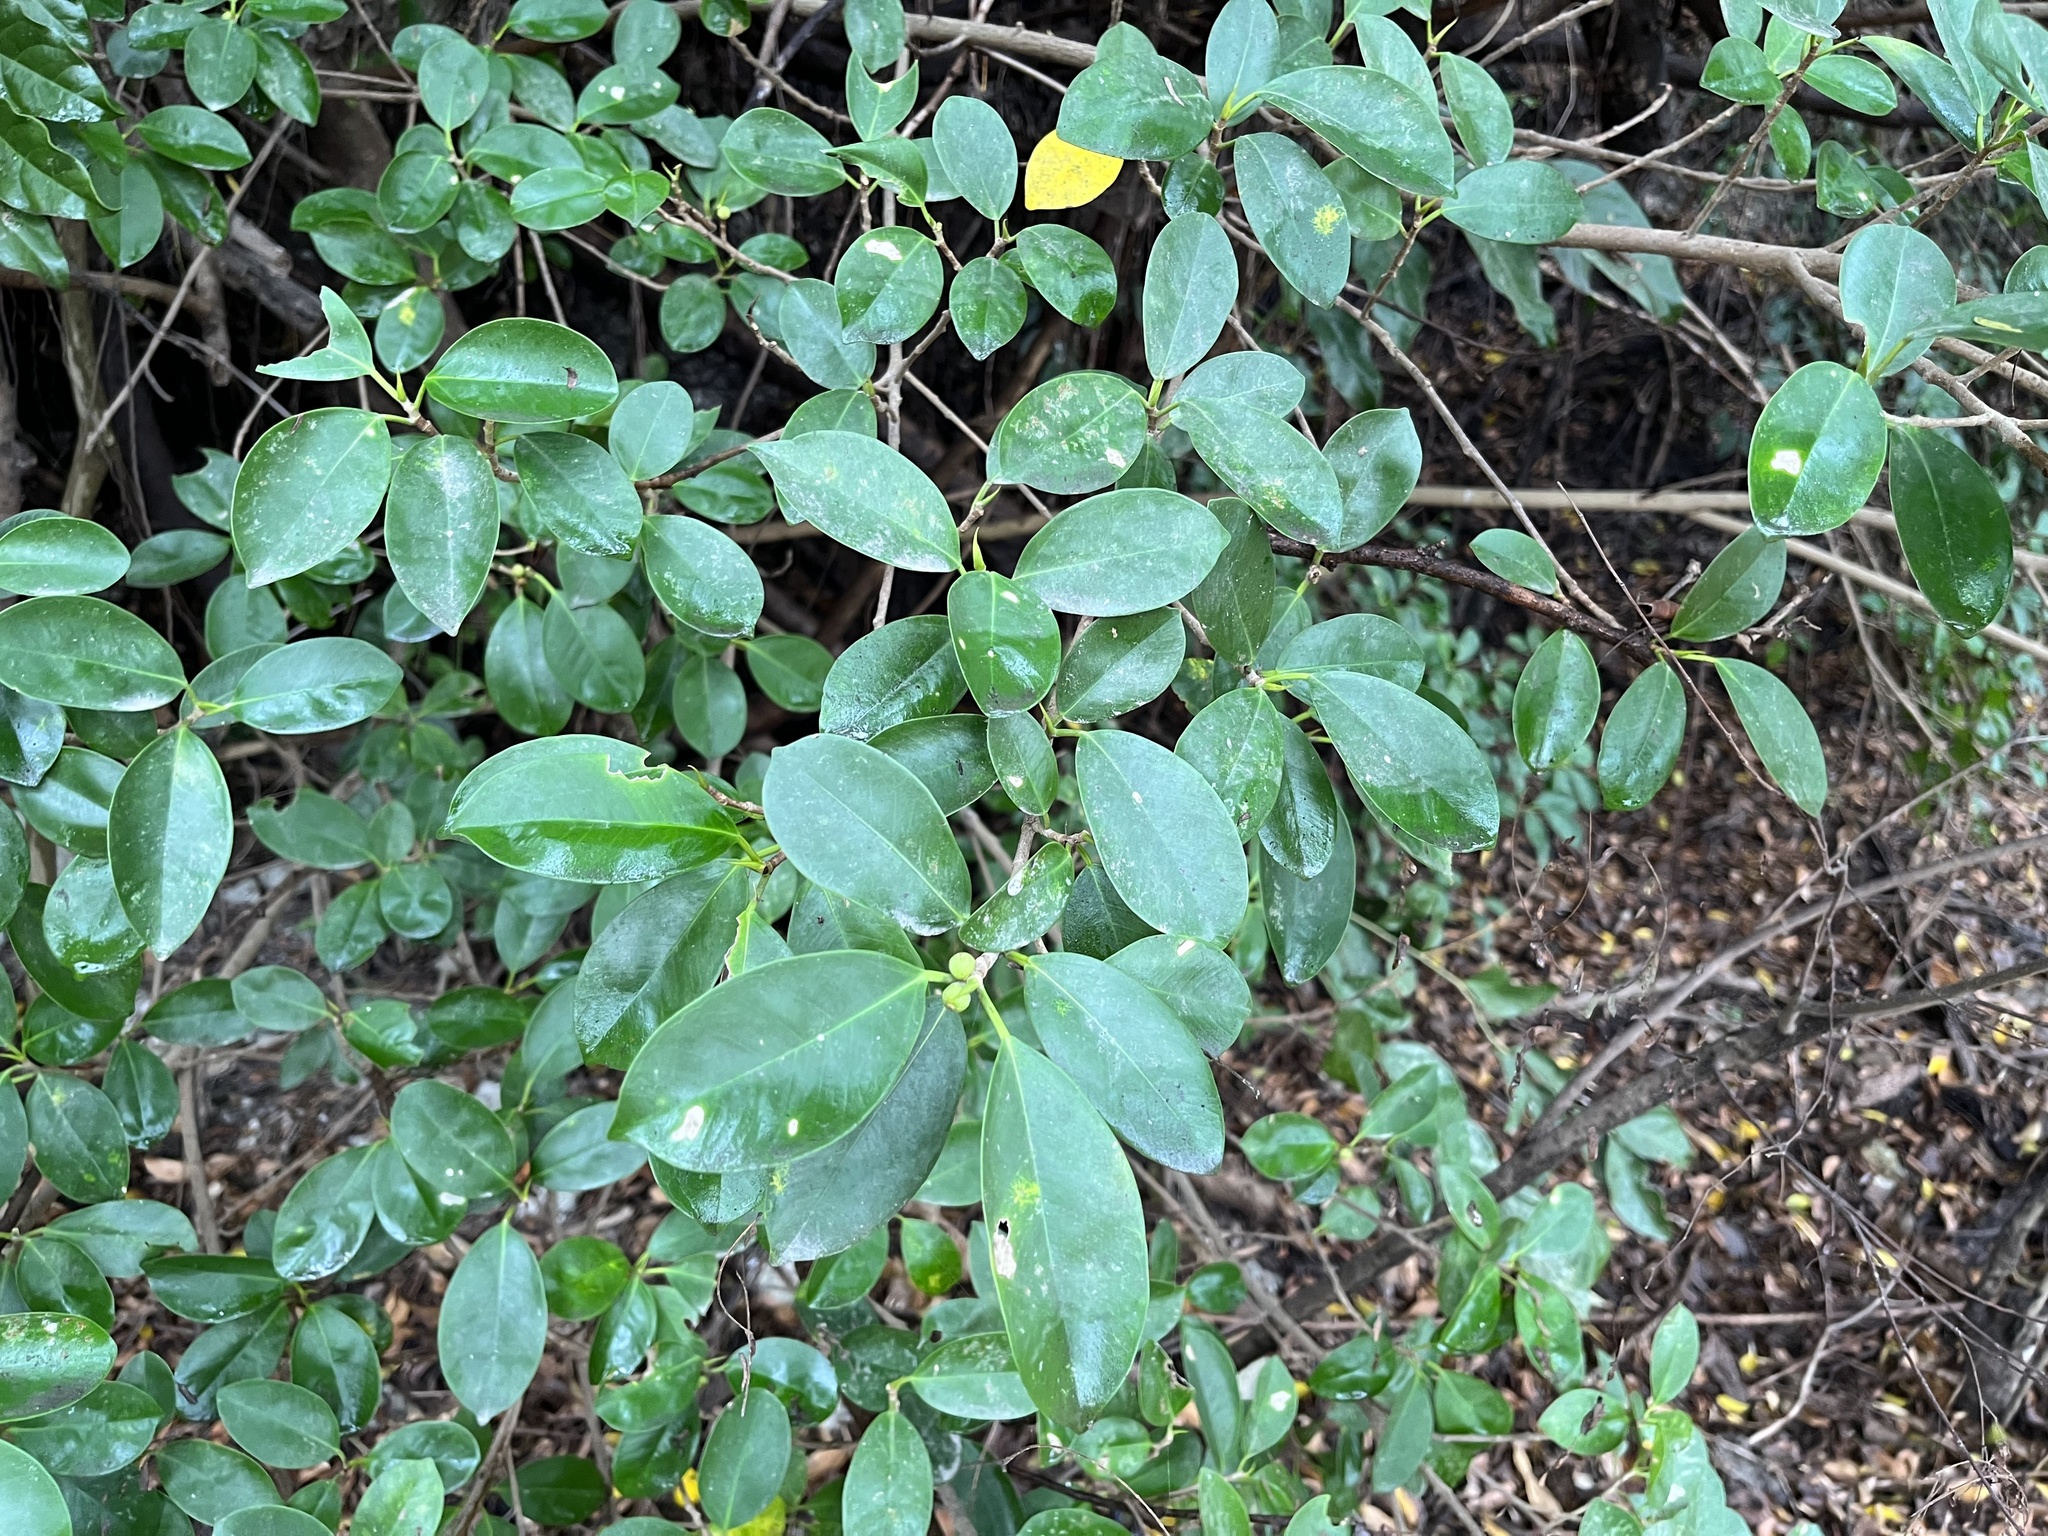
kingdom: Plantae
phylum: Tracheophyta
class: Magnoliopsida
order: Rosales
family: Moraceae
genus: Ficus
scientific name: Ficus microcarpa
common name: Chinese banyan
